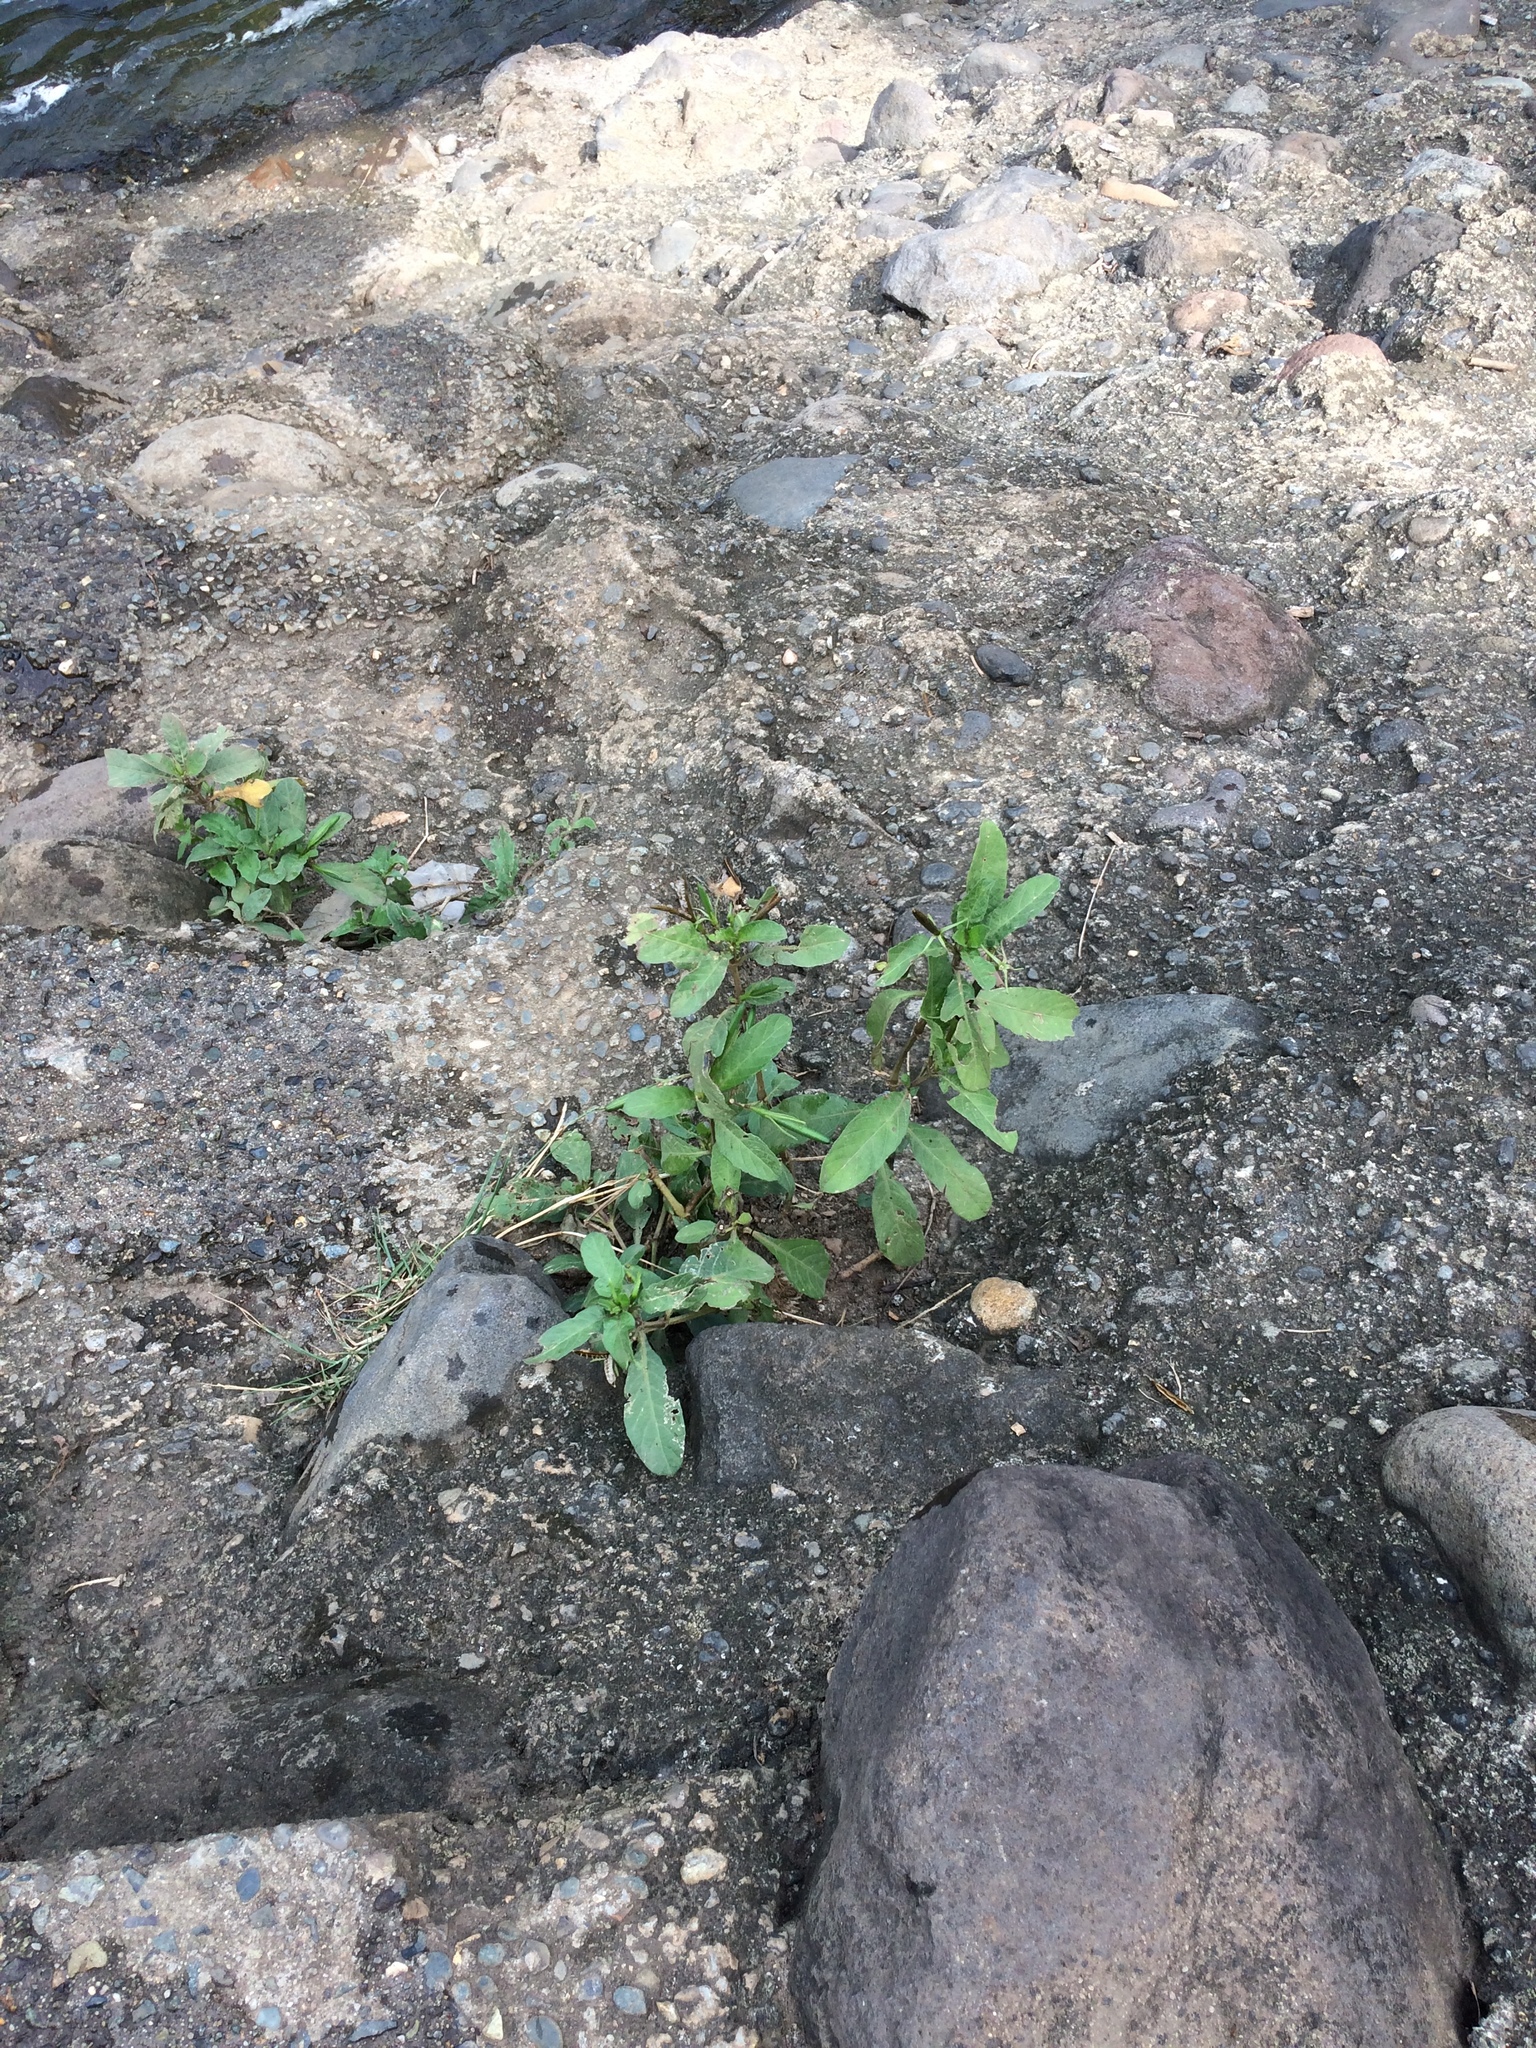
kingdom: Plantae
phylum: Tracheophyta
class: Magnoliopsida
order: Lamiales
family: Acanthaceae
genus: Ruellia
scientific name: Ruellia tuberosa
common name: Devil's bit
